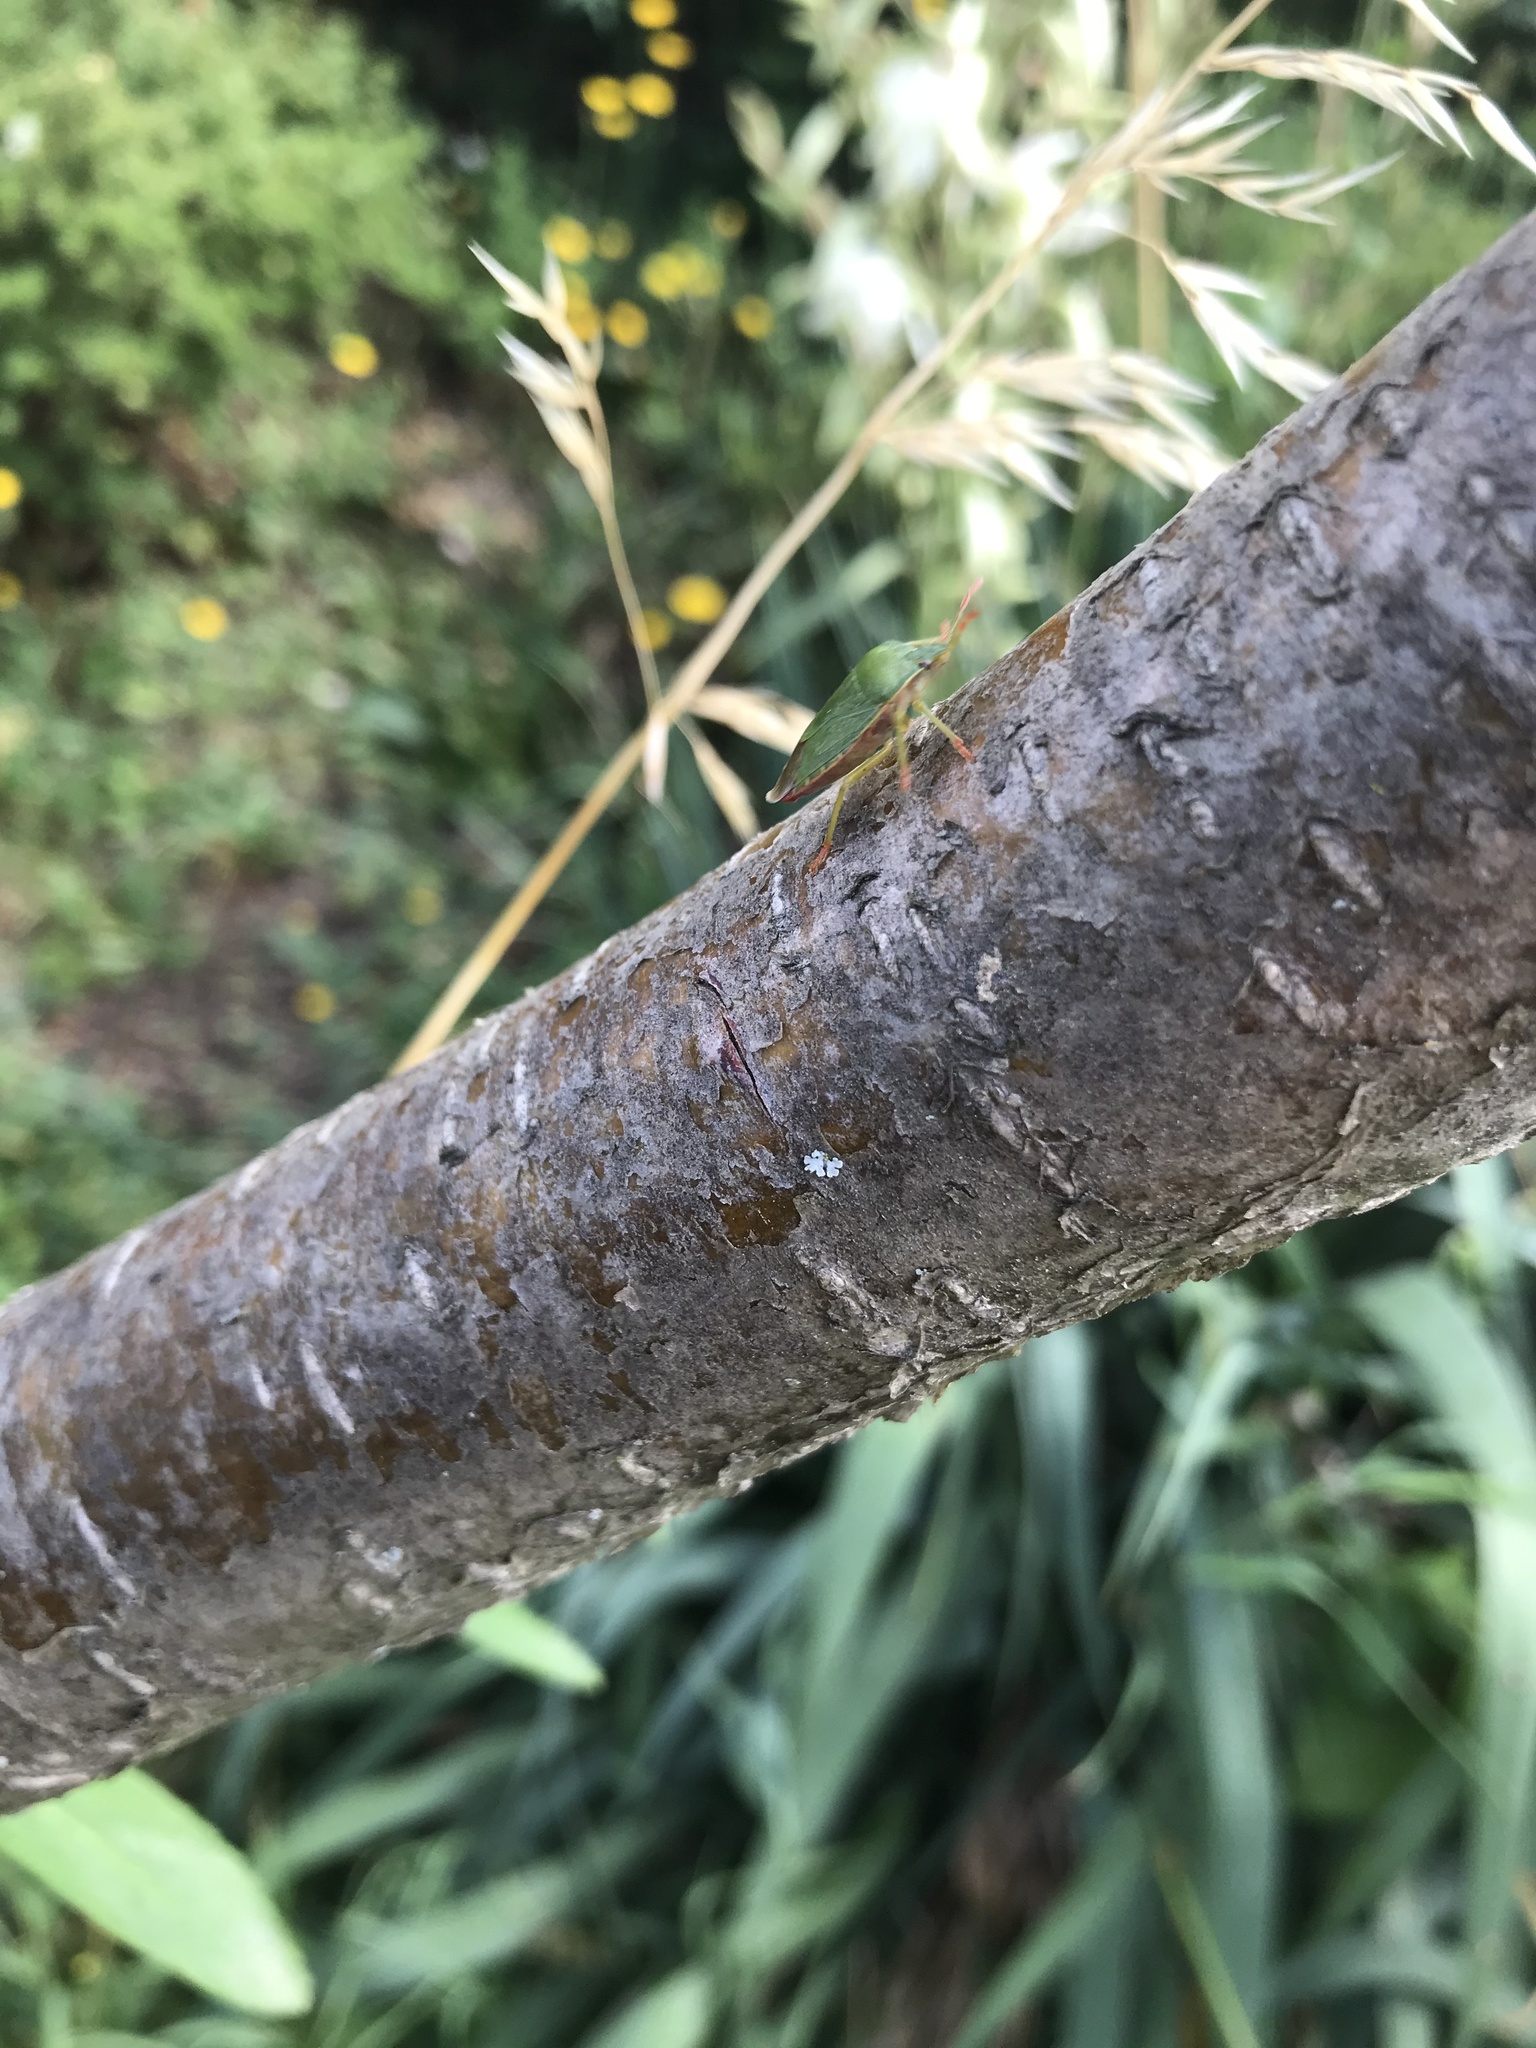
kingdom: Animalia
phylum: Arthropoda
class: Insecta
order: Hemiptera
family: Pentatomidae
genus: Palomena
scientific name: Palomena prasina
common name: Green shieldbug
